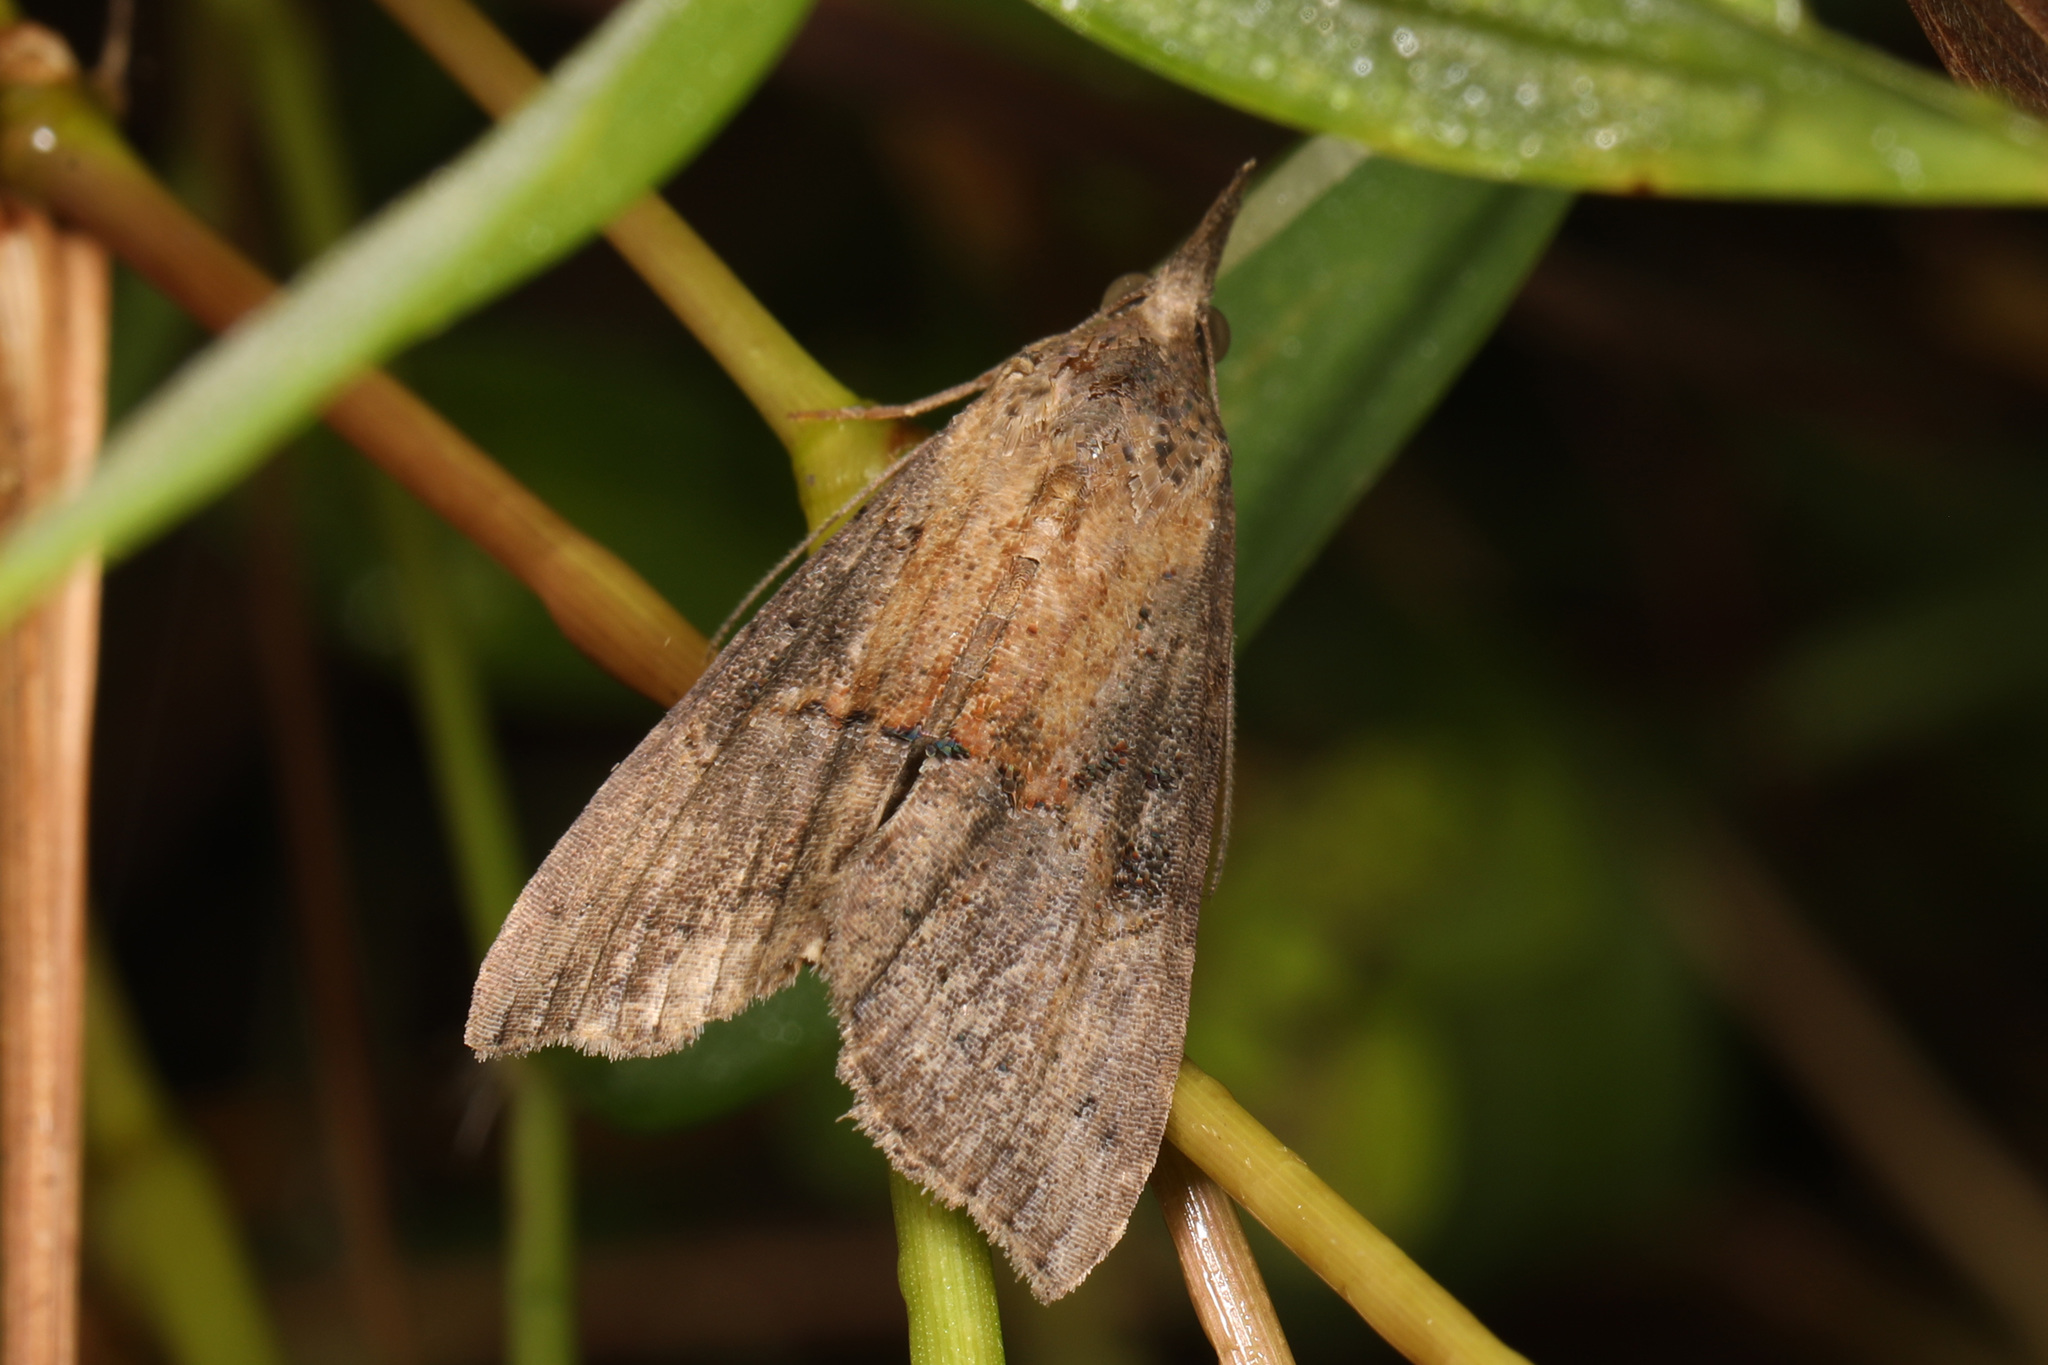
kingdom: Animalia
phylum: Arthropoda
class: Insecta
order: Lepidoptera
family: Erebidae
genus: Hypena
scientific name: Hypena scabra
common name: Green cloverworm
